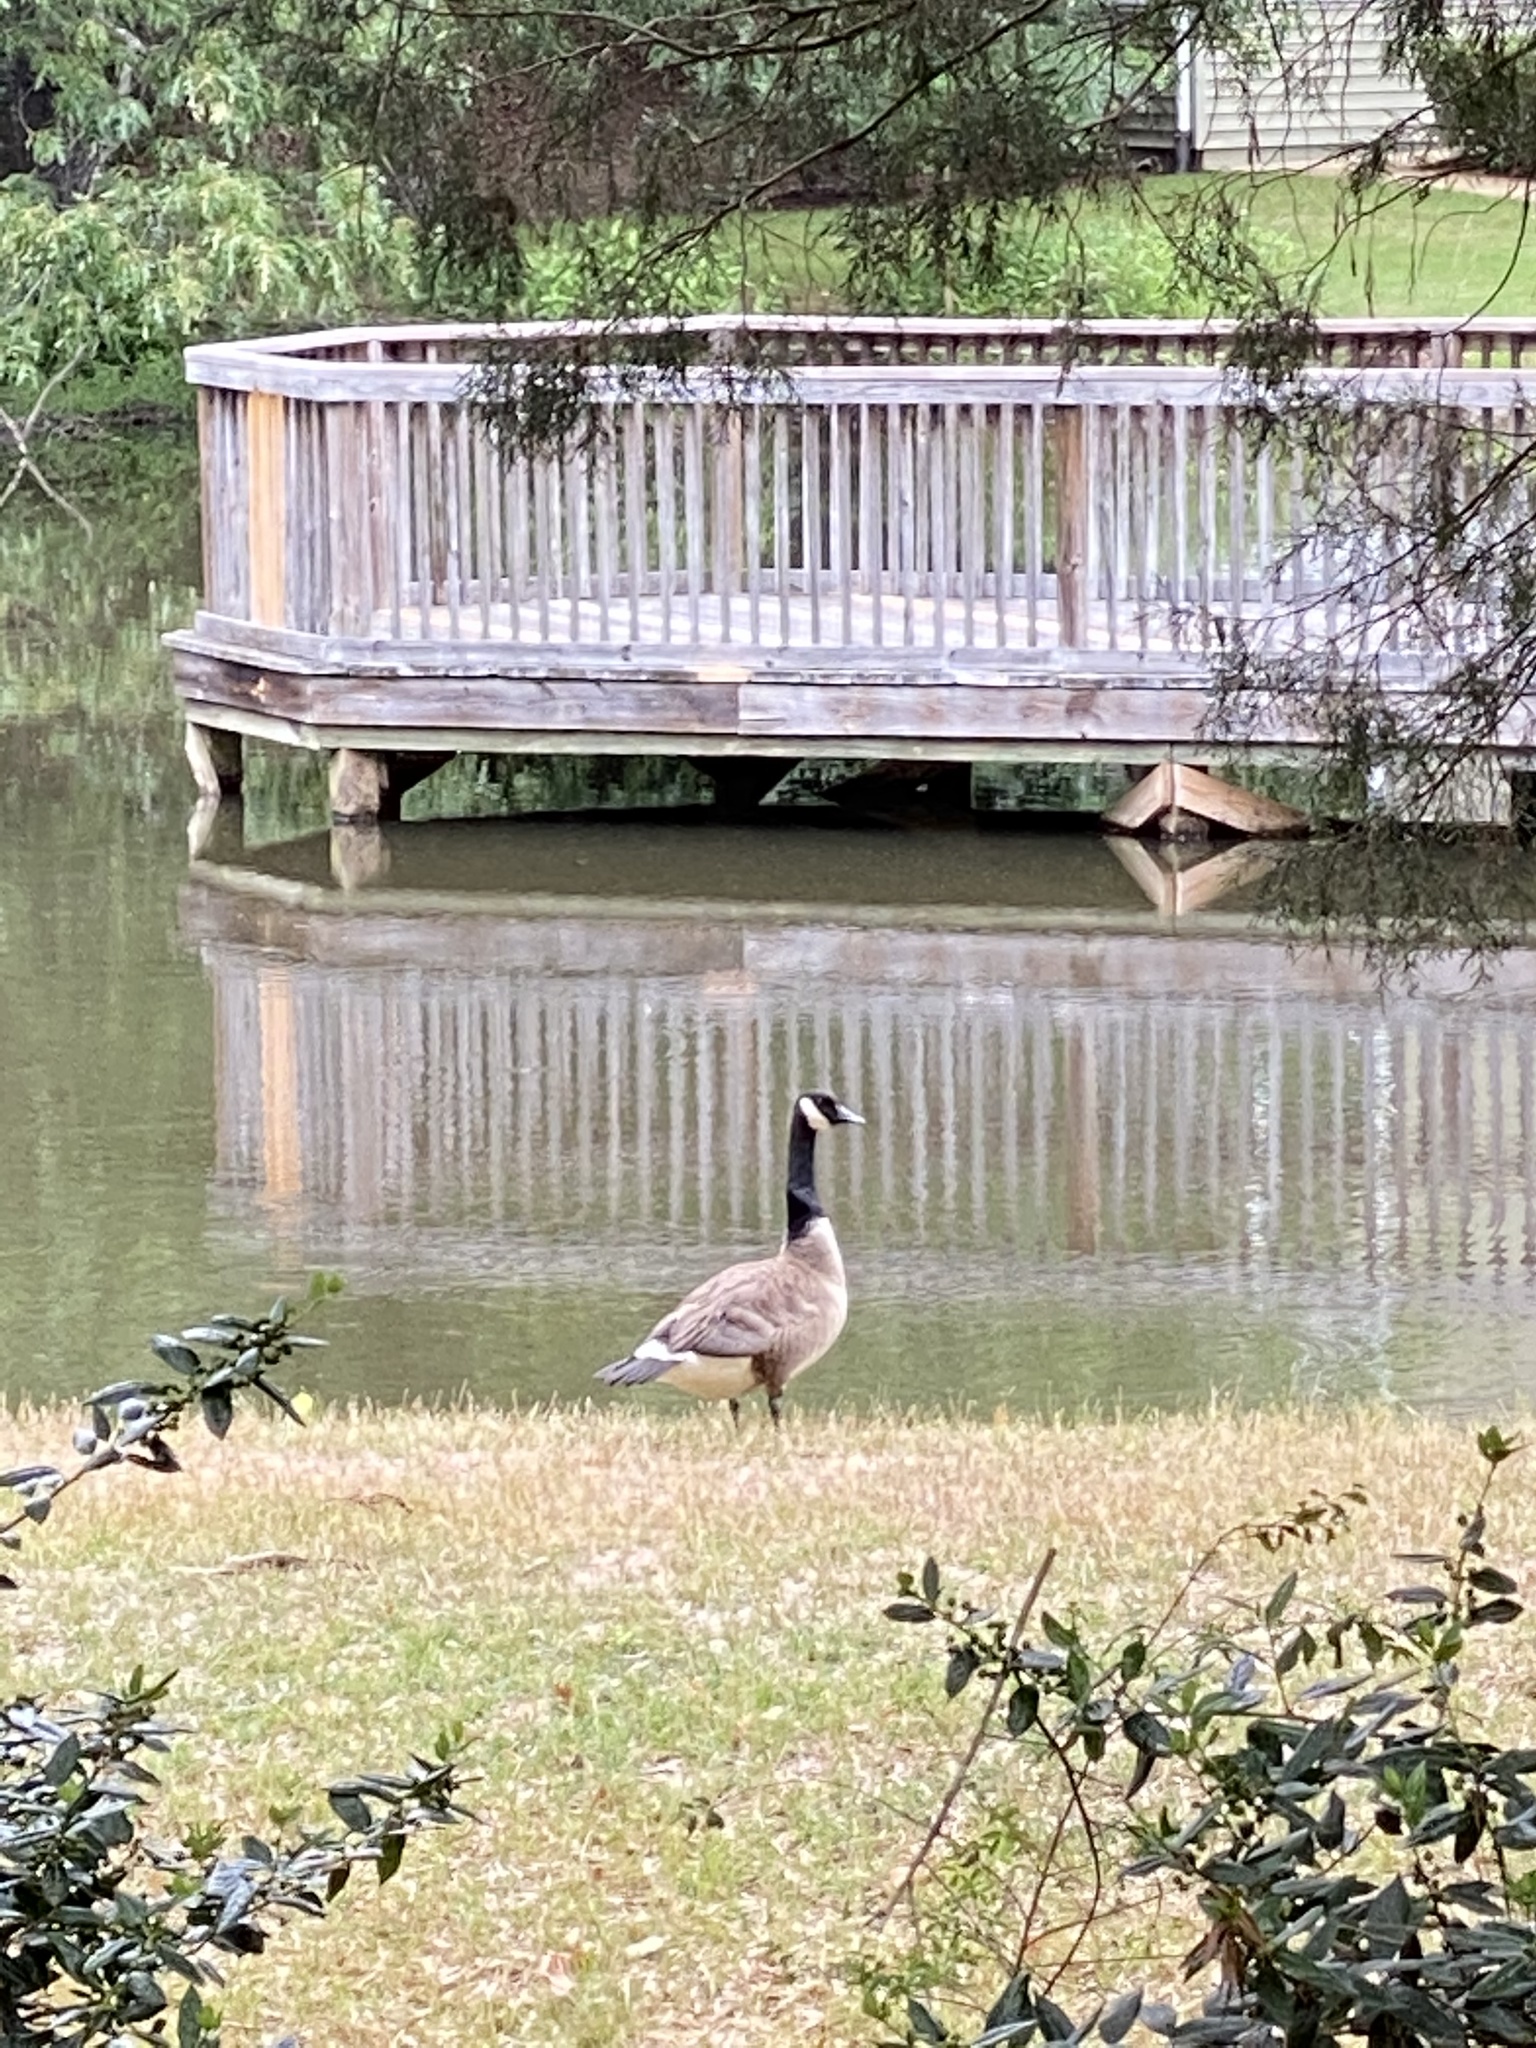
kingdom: Animalia
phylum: Chordata
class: Aves
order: Anseriformes
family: Anatidae
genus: Branta
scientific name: Branta canadensis
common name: Canada goose
